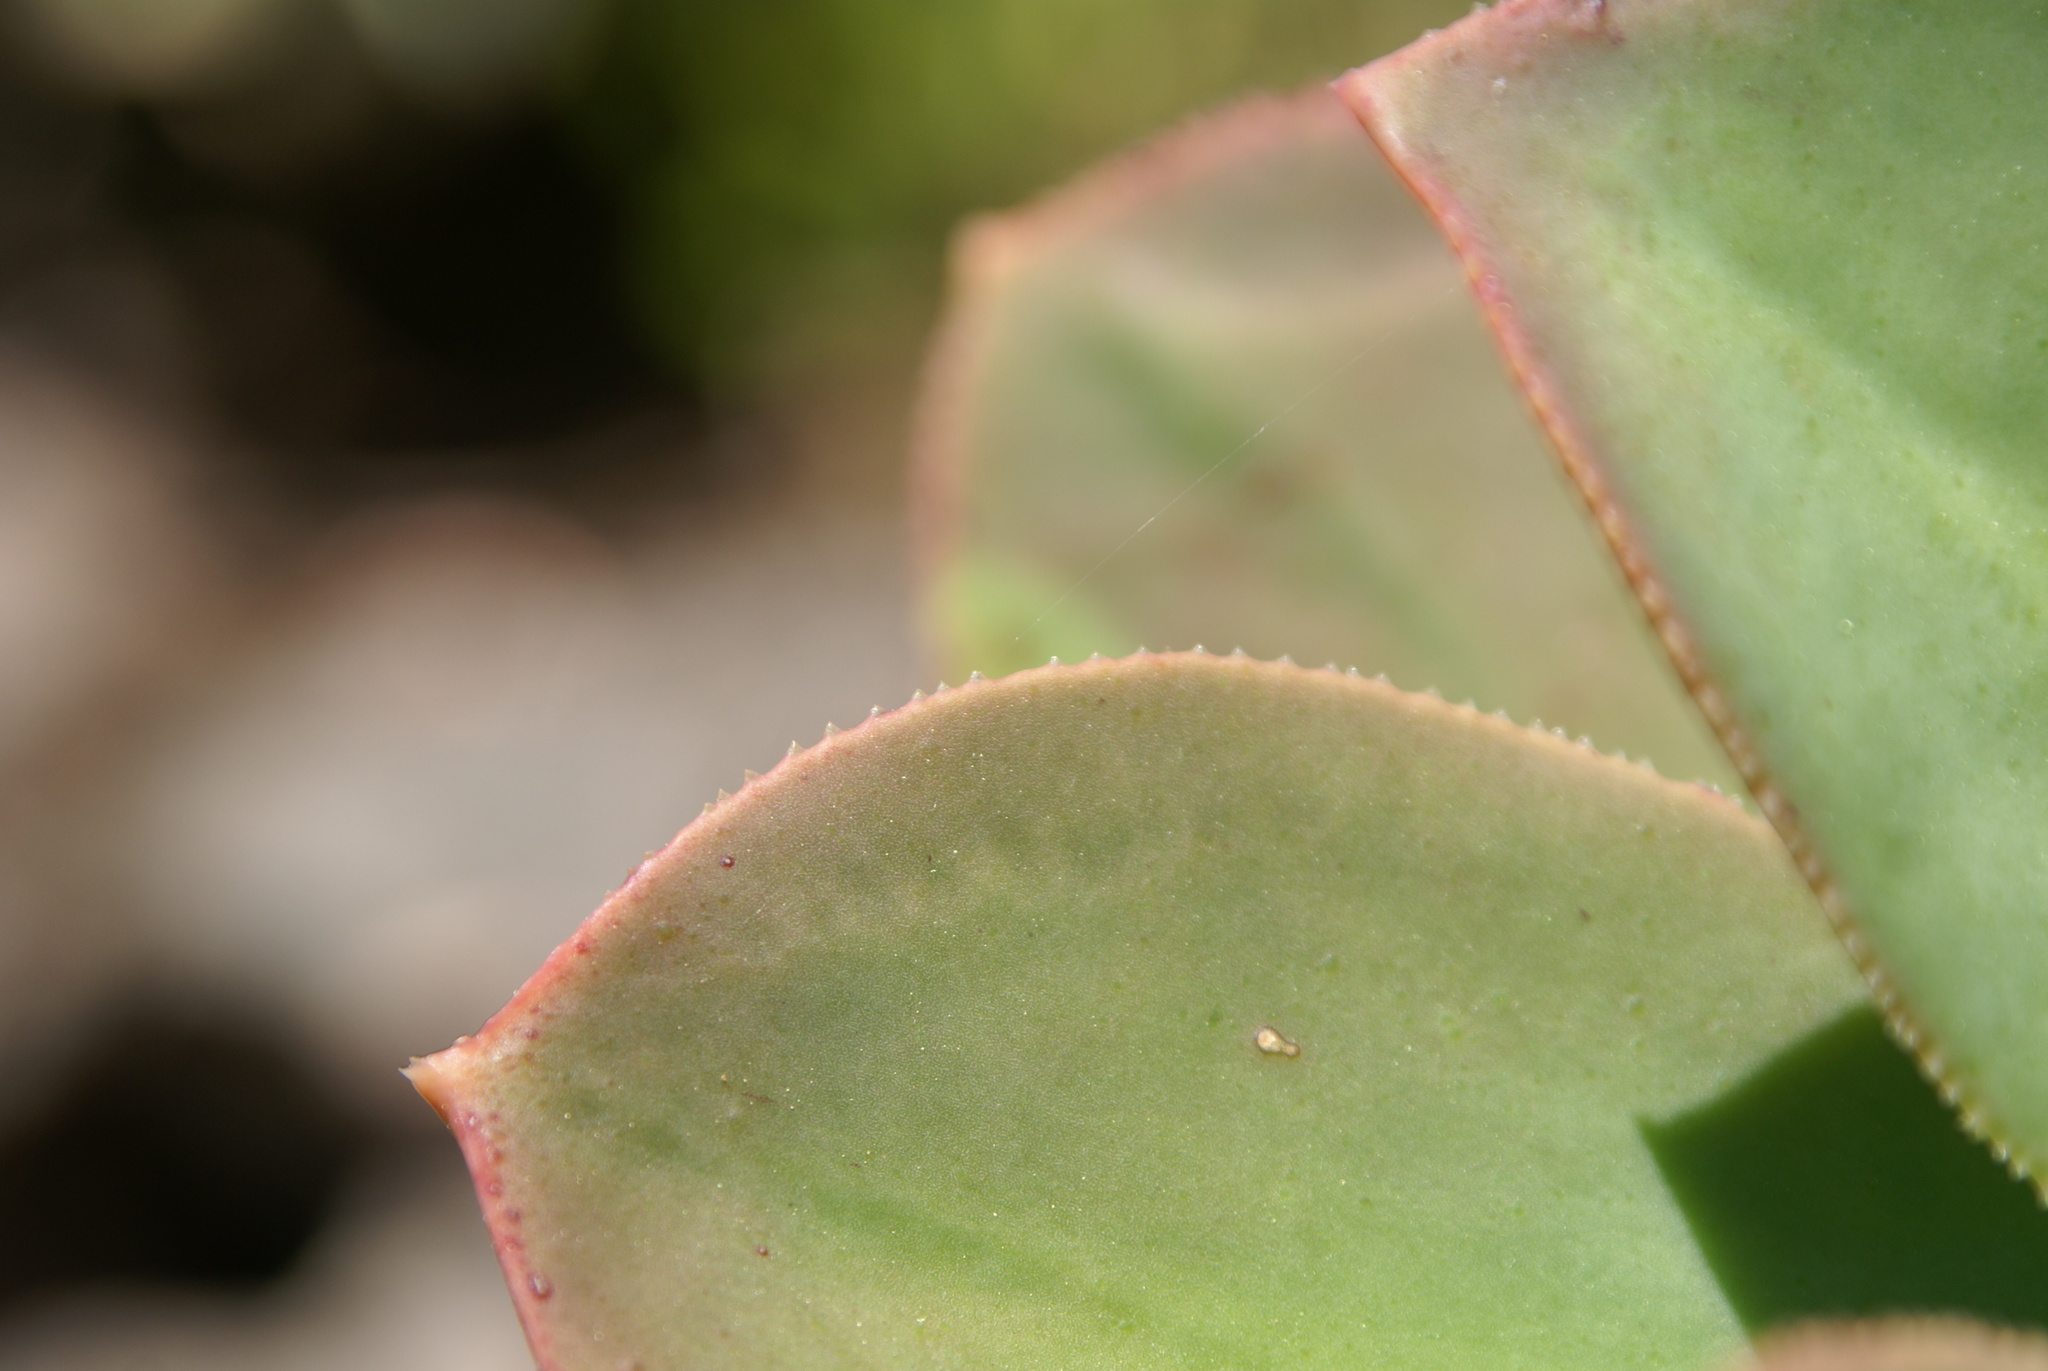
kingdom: Plantae
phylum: Tracheophyta
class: Magnoliopsida
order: Saxifragales
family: Crassulaceae
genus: Aeonium
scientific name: Aeonium davidbramwellii
